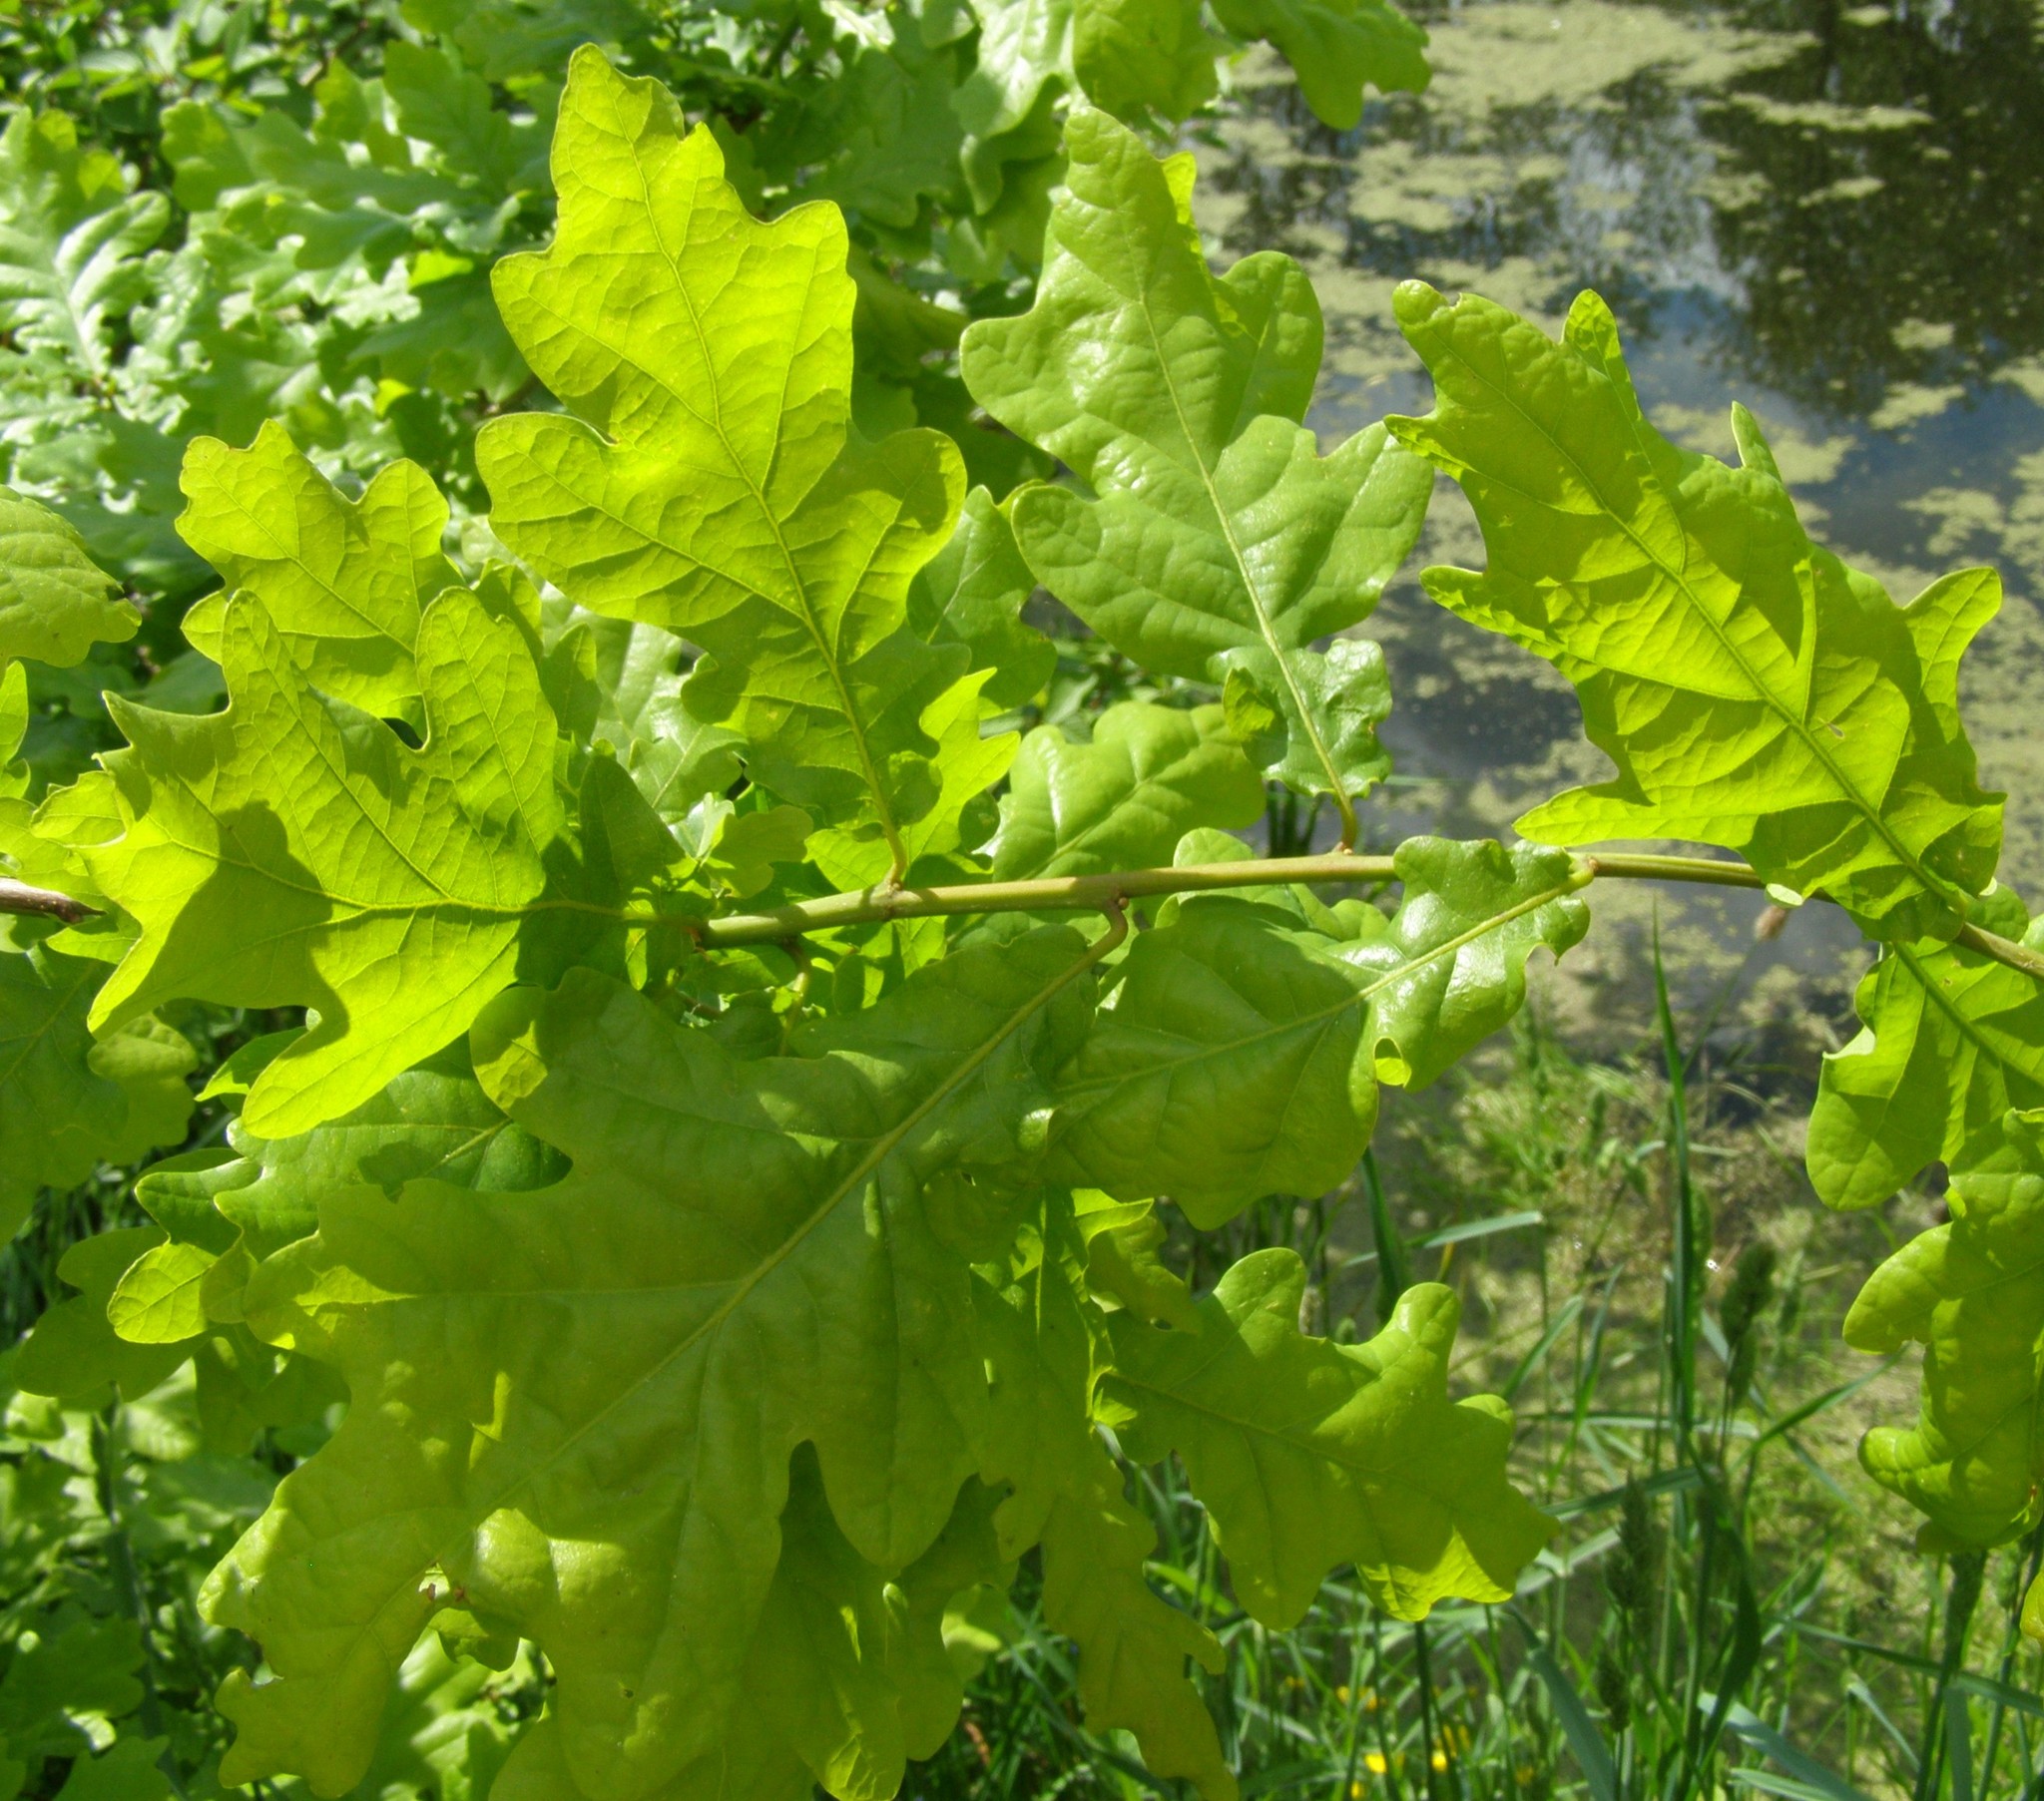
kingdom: Plantae
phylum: Tracheophyta
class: Magnoliopsida
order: Fagales
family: Fagaceae
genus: Quercus
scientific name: Quercus robur
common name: Pedunculate oak
